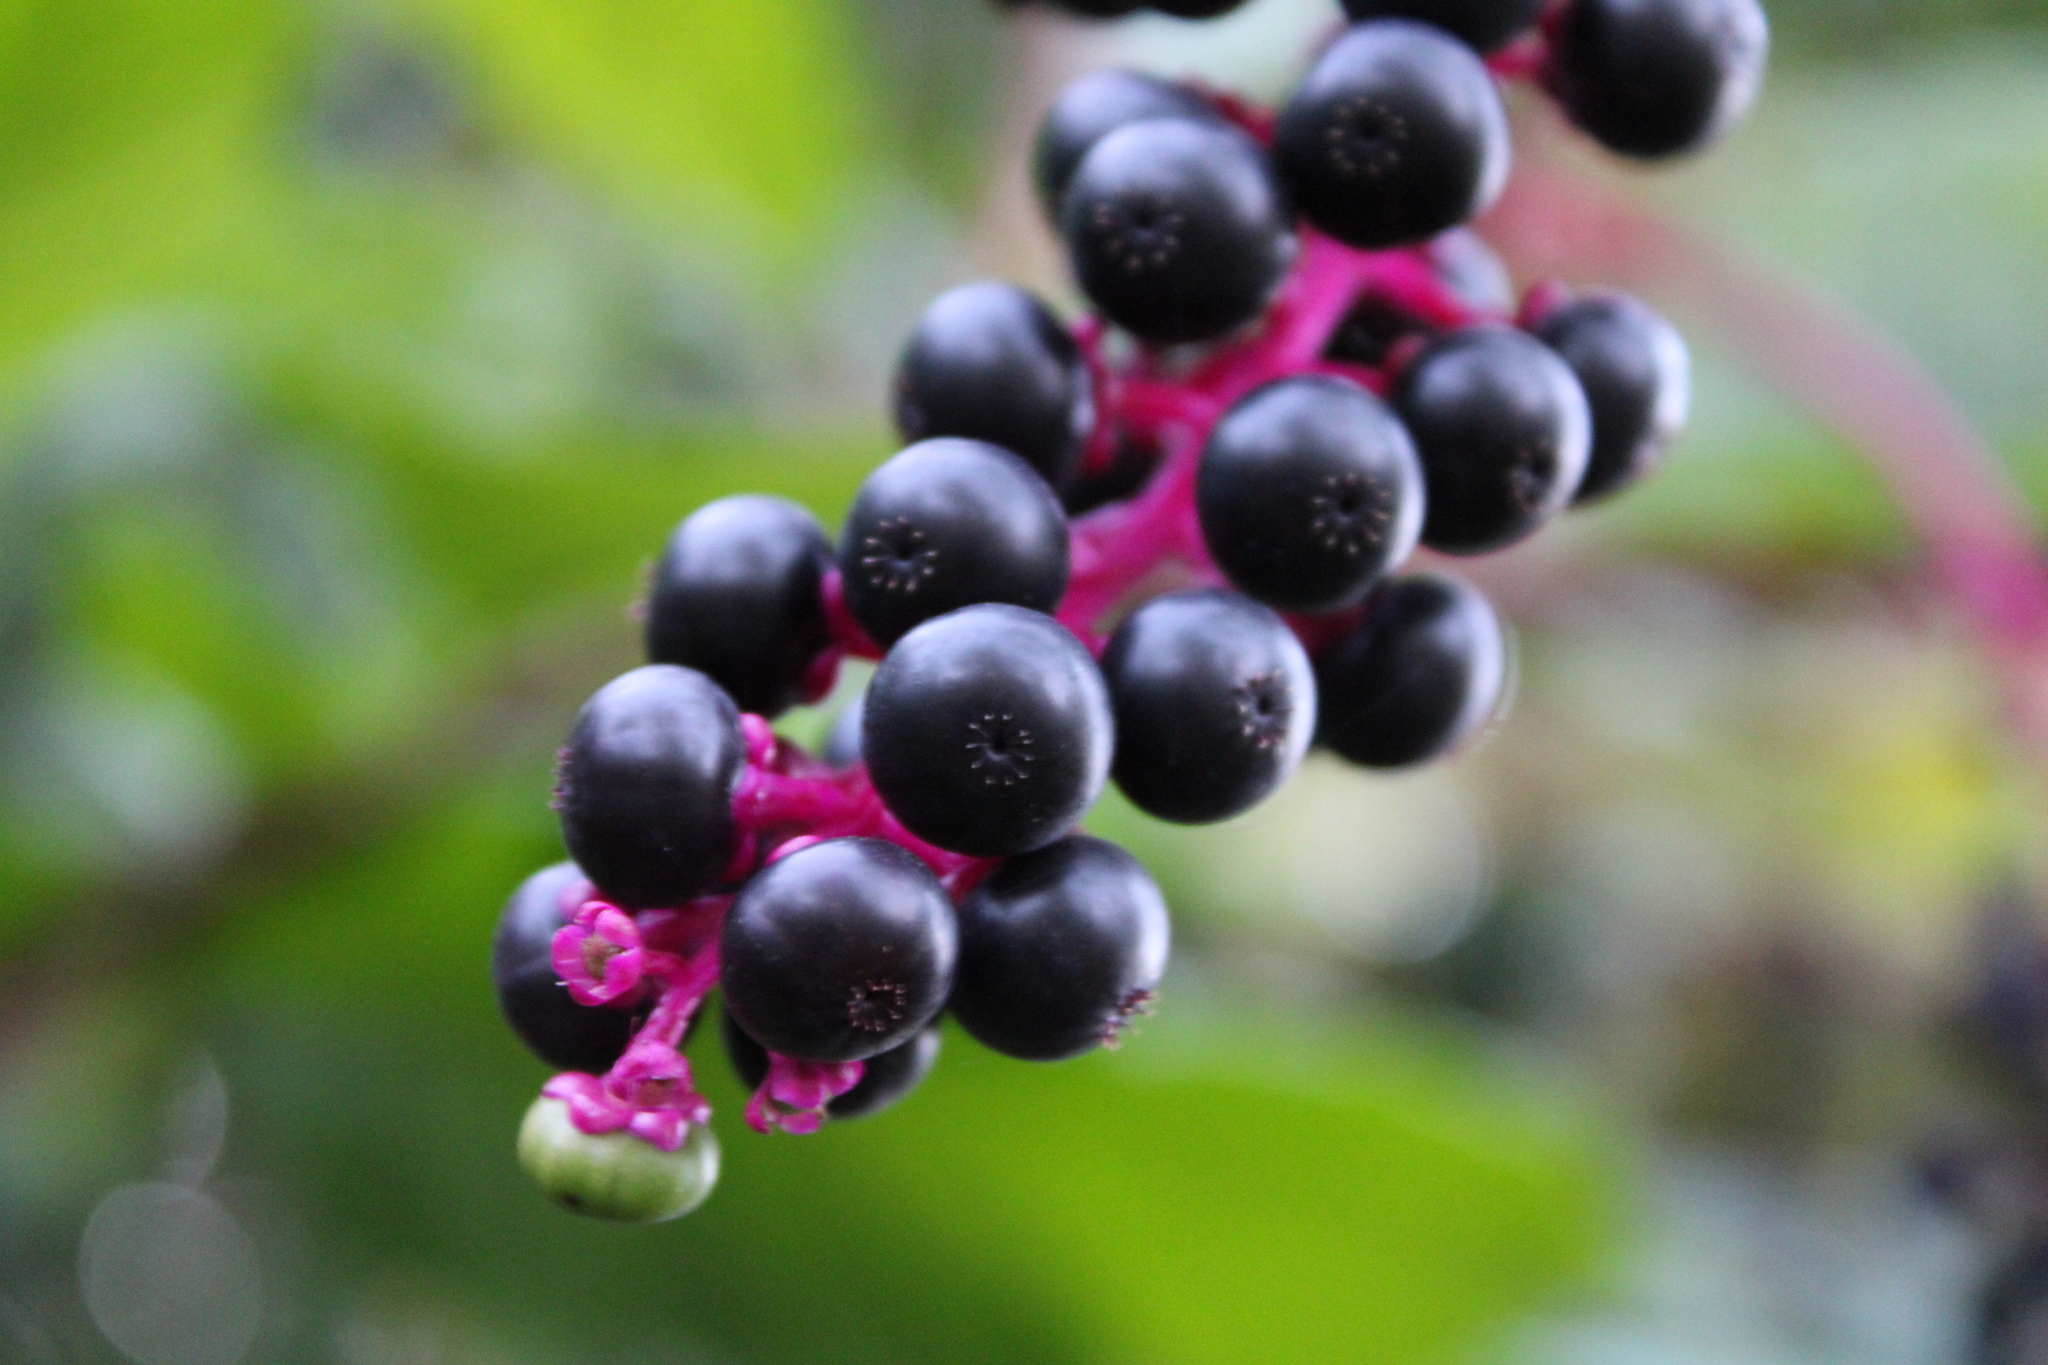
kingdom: Plantae
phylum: Tracheophyta
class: Magnoliopsida
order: Caryophyllales
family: Phytolaccaceae
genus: Phytolacca
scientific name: Phytolacca americana
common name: American pokeweed
